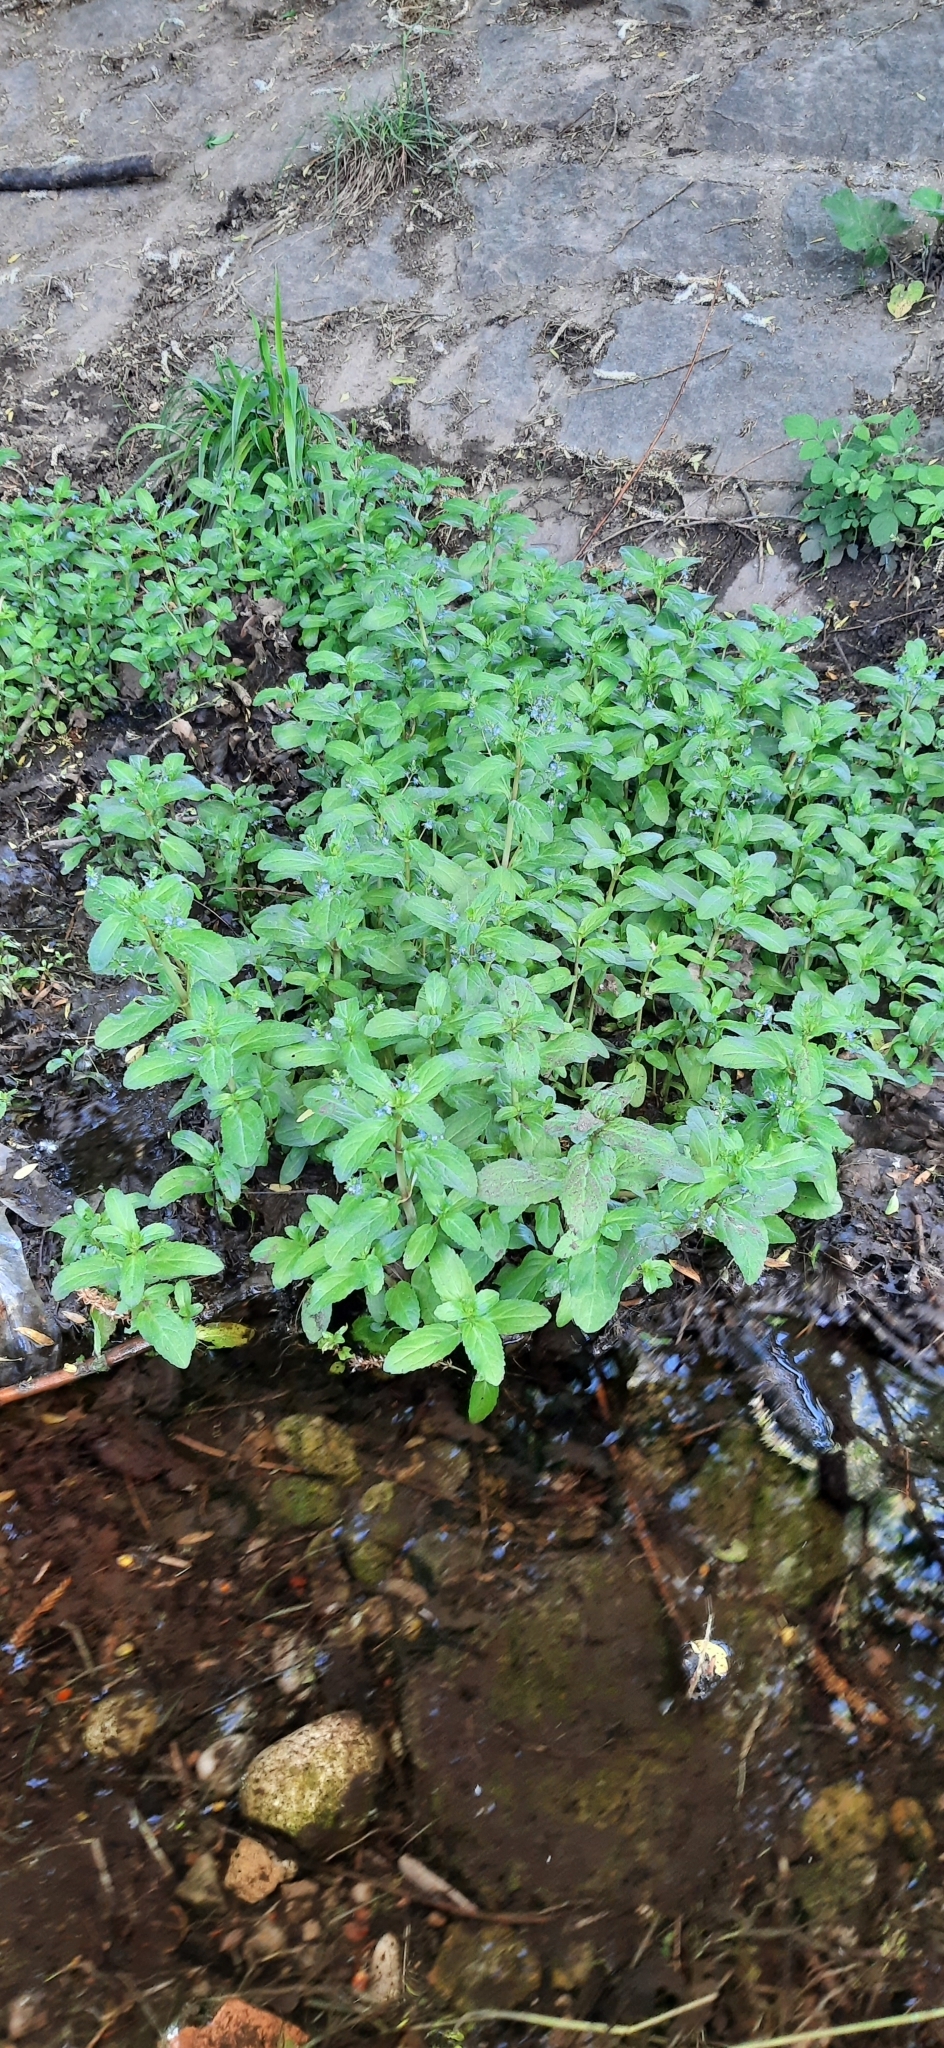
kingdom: Plantae
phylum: Tracheophyta
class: Magnoliopsida
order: Lamiales
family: Plantaginaceae
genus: Veronica
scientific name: Veronica beccabunga
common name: Brooklime
